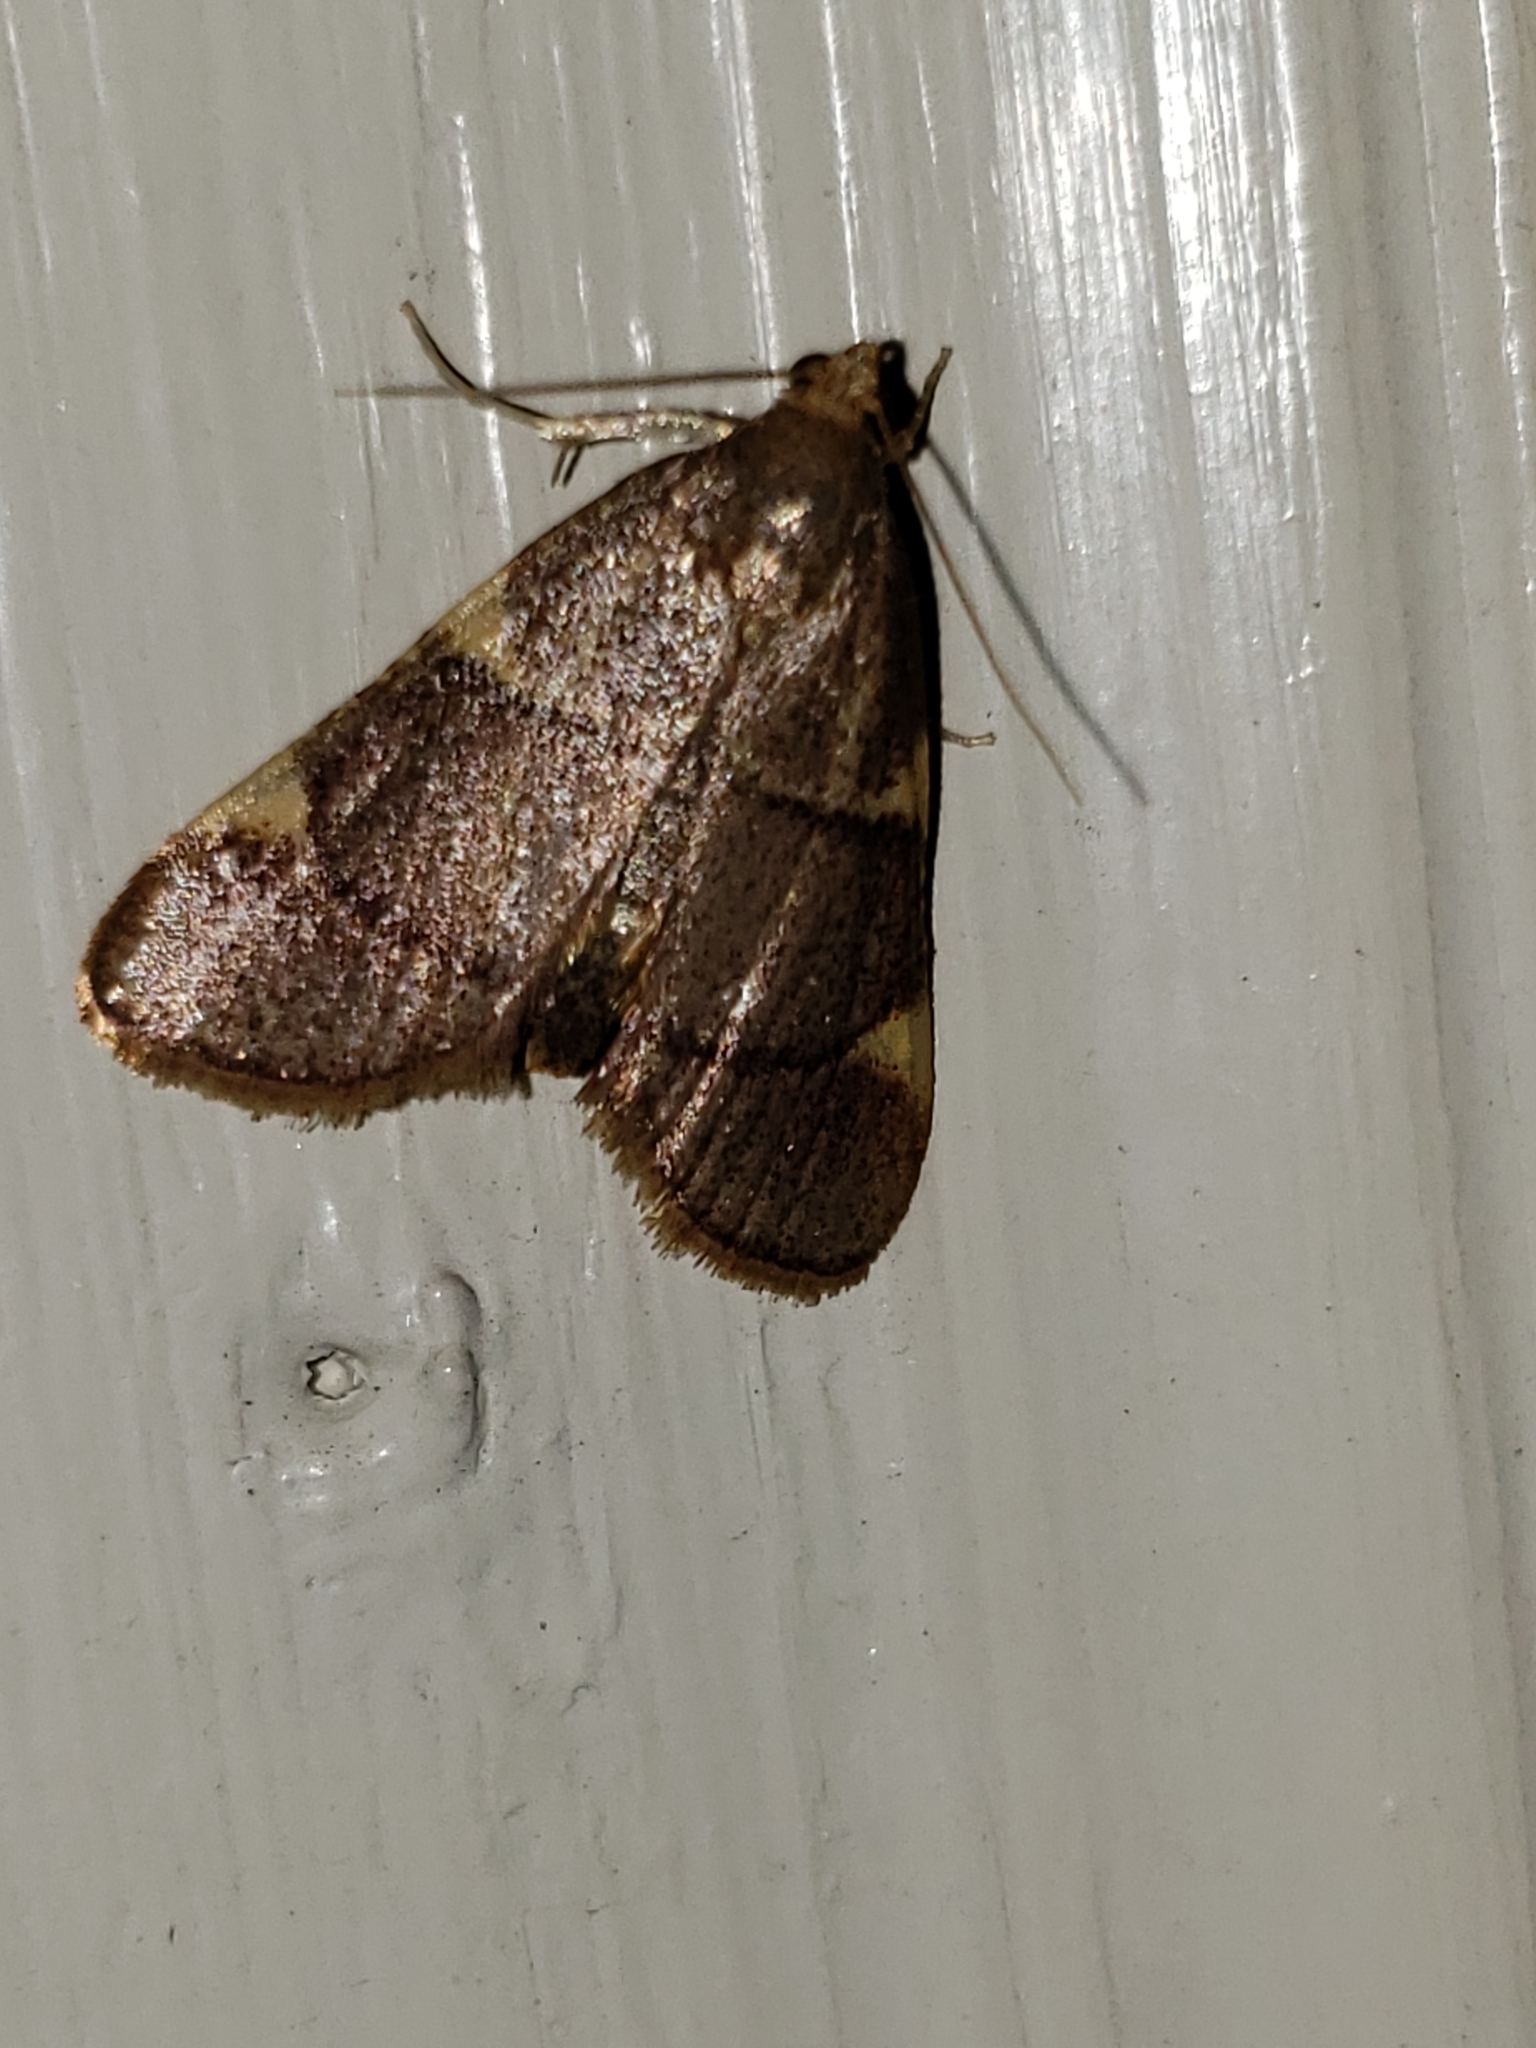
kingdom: Animalia
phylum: Arthropoda
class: Insecta
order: Lepidoptera
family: Pyralidae
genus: Hypsopygia
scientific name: Hypsopygia olinalis
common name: Yellow-fringed dolichomia moth
